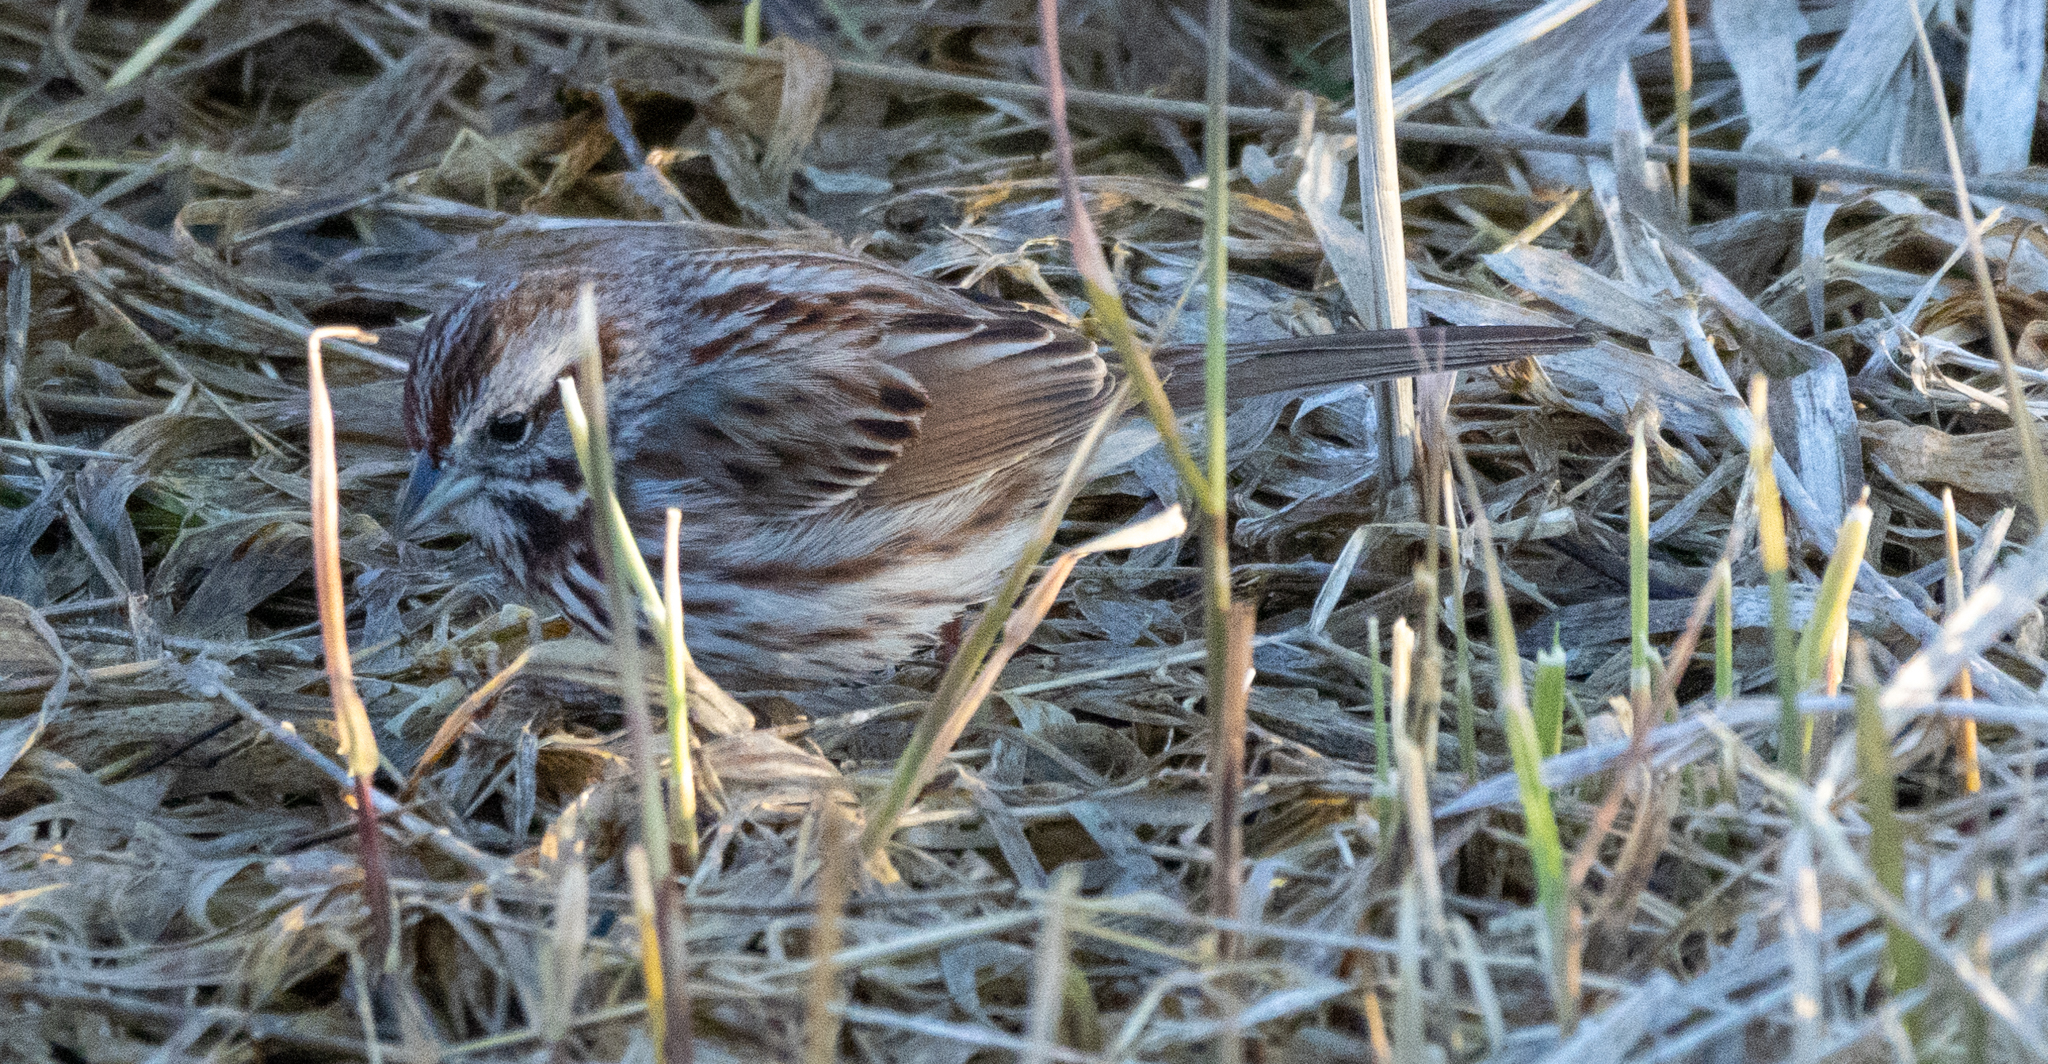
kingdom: Animalia
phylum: Chordata
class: Aves
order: Passeriformes
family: Passerellidae
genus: Melospiza
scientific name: Melospiza melodia
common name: Song sparrow
